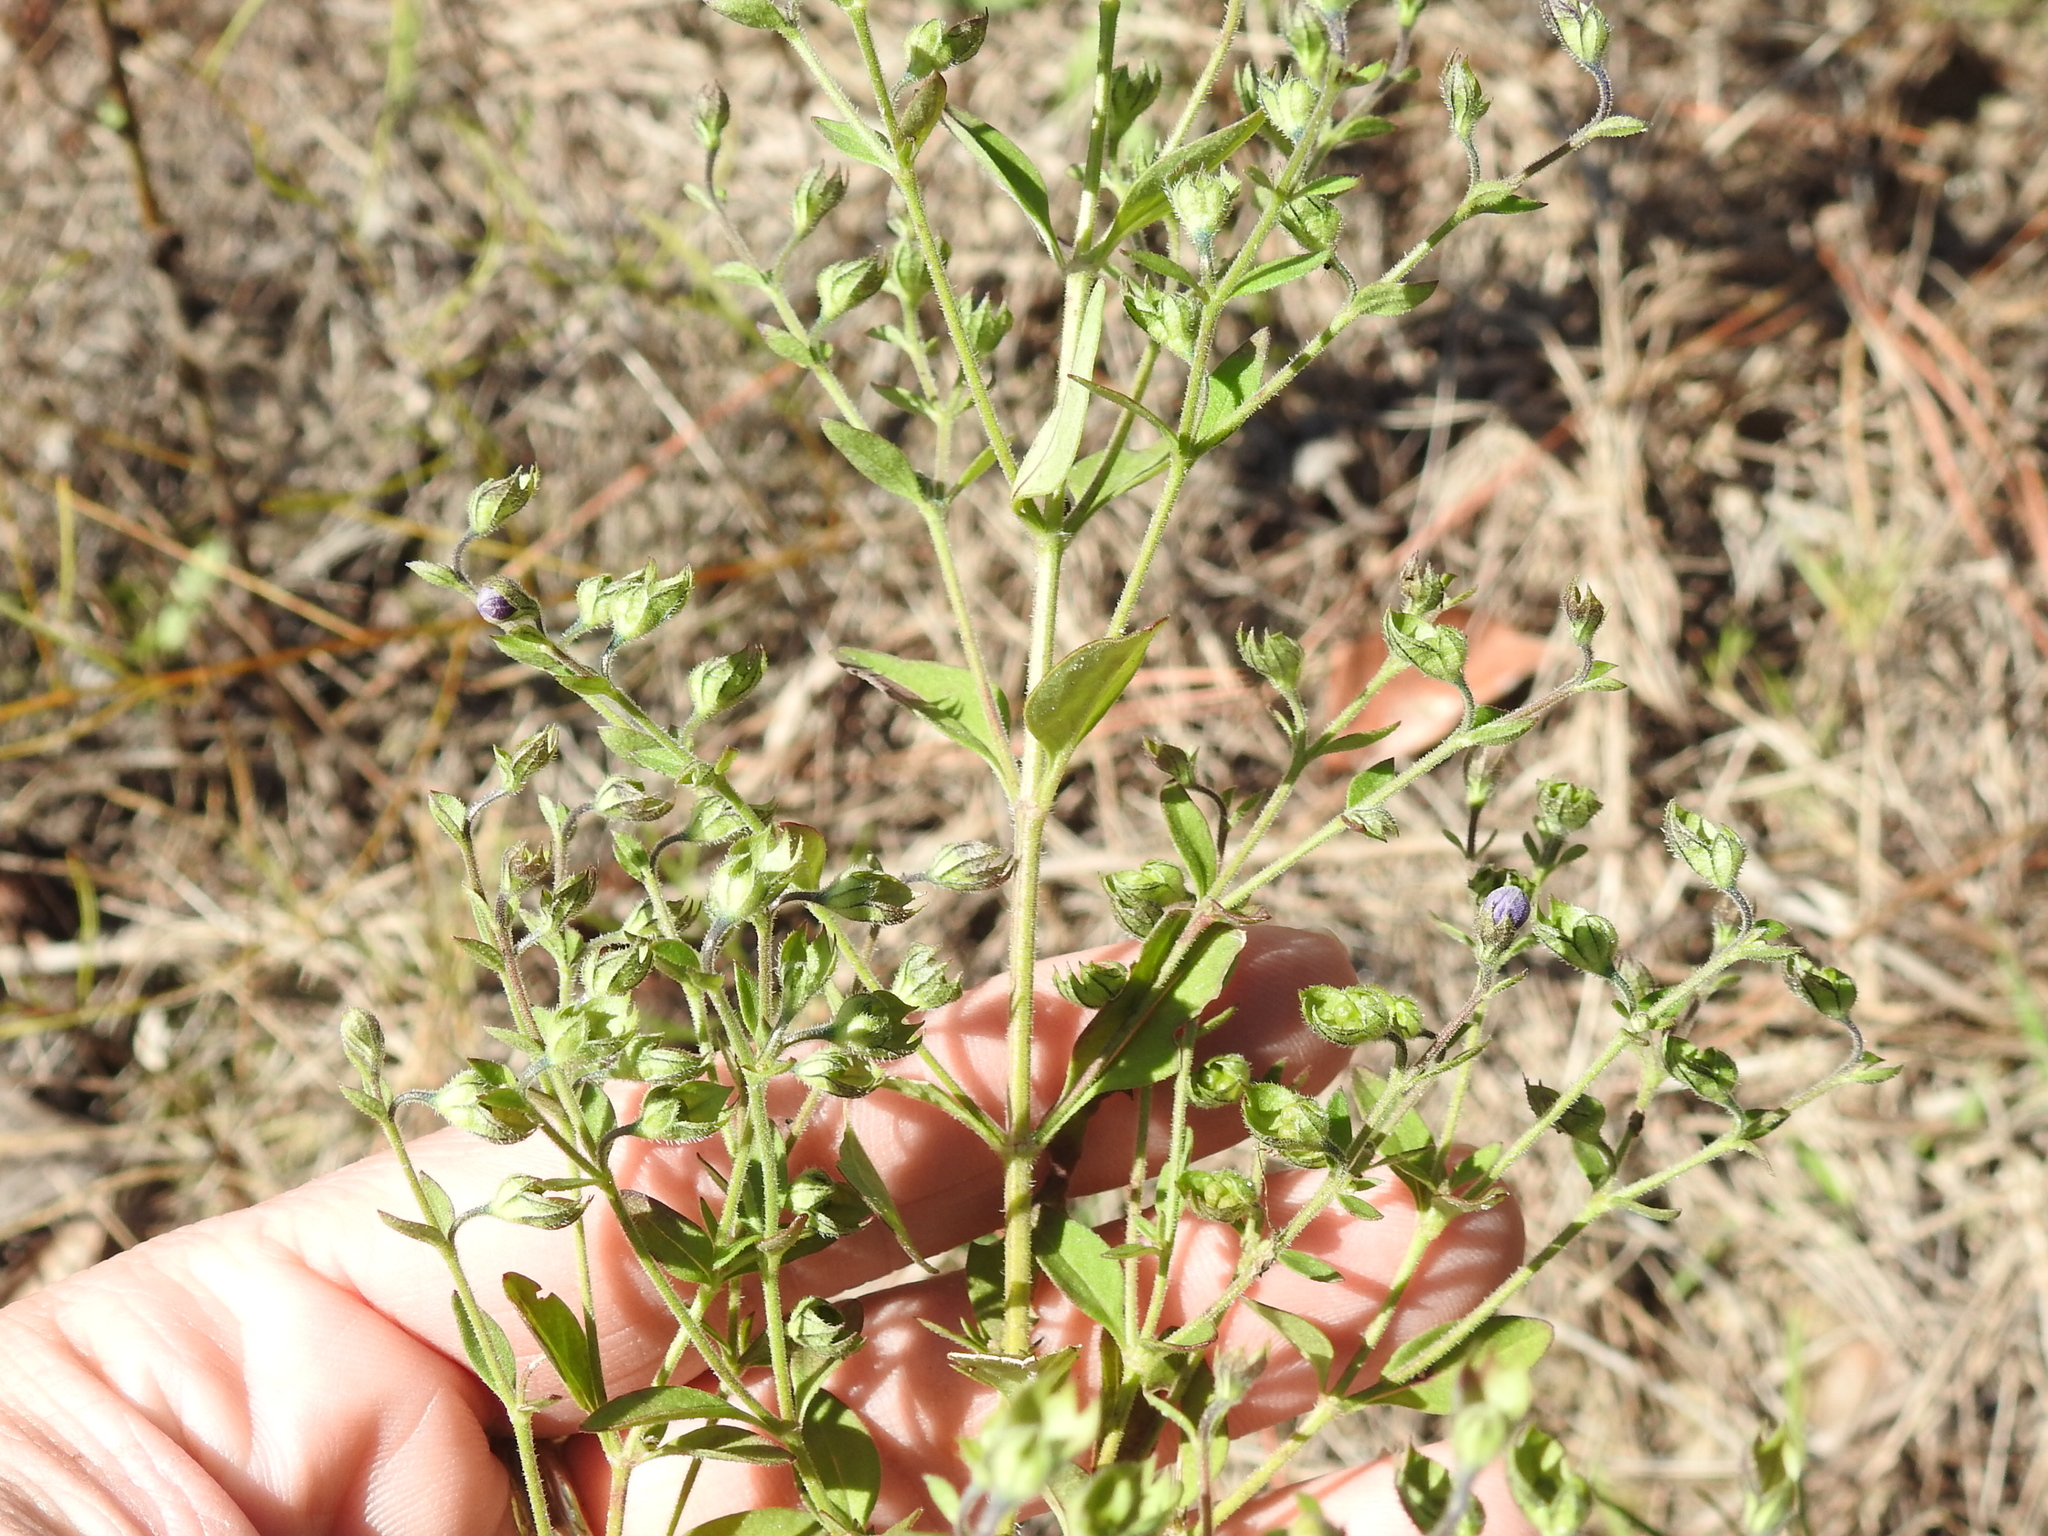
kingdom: Plantae
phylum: Tracheophyta
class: Magnoliopsida
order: Lamiales
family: Lamiaceae
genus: Trichostema
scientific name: Trichostema dichotomum
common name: Bastard pennyroyal
